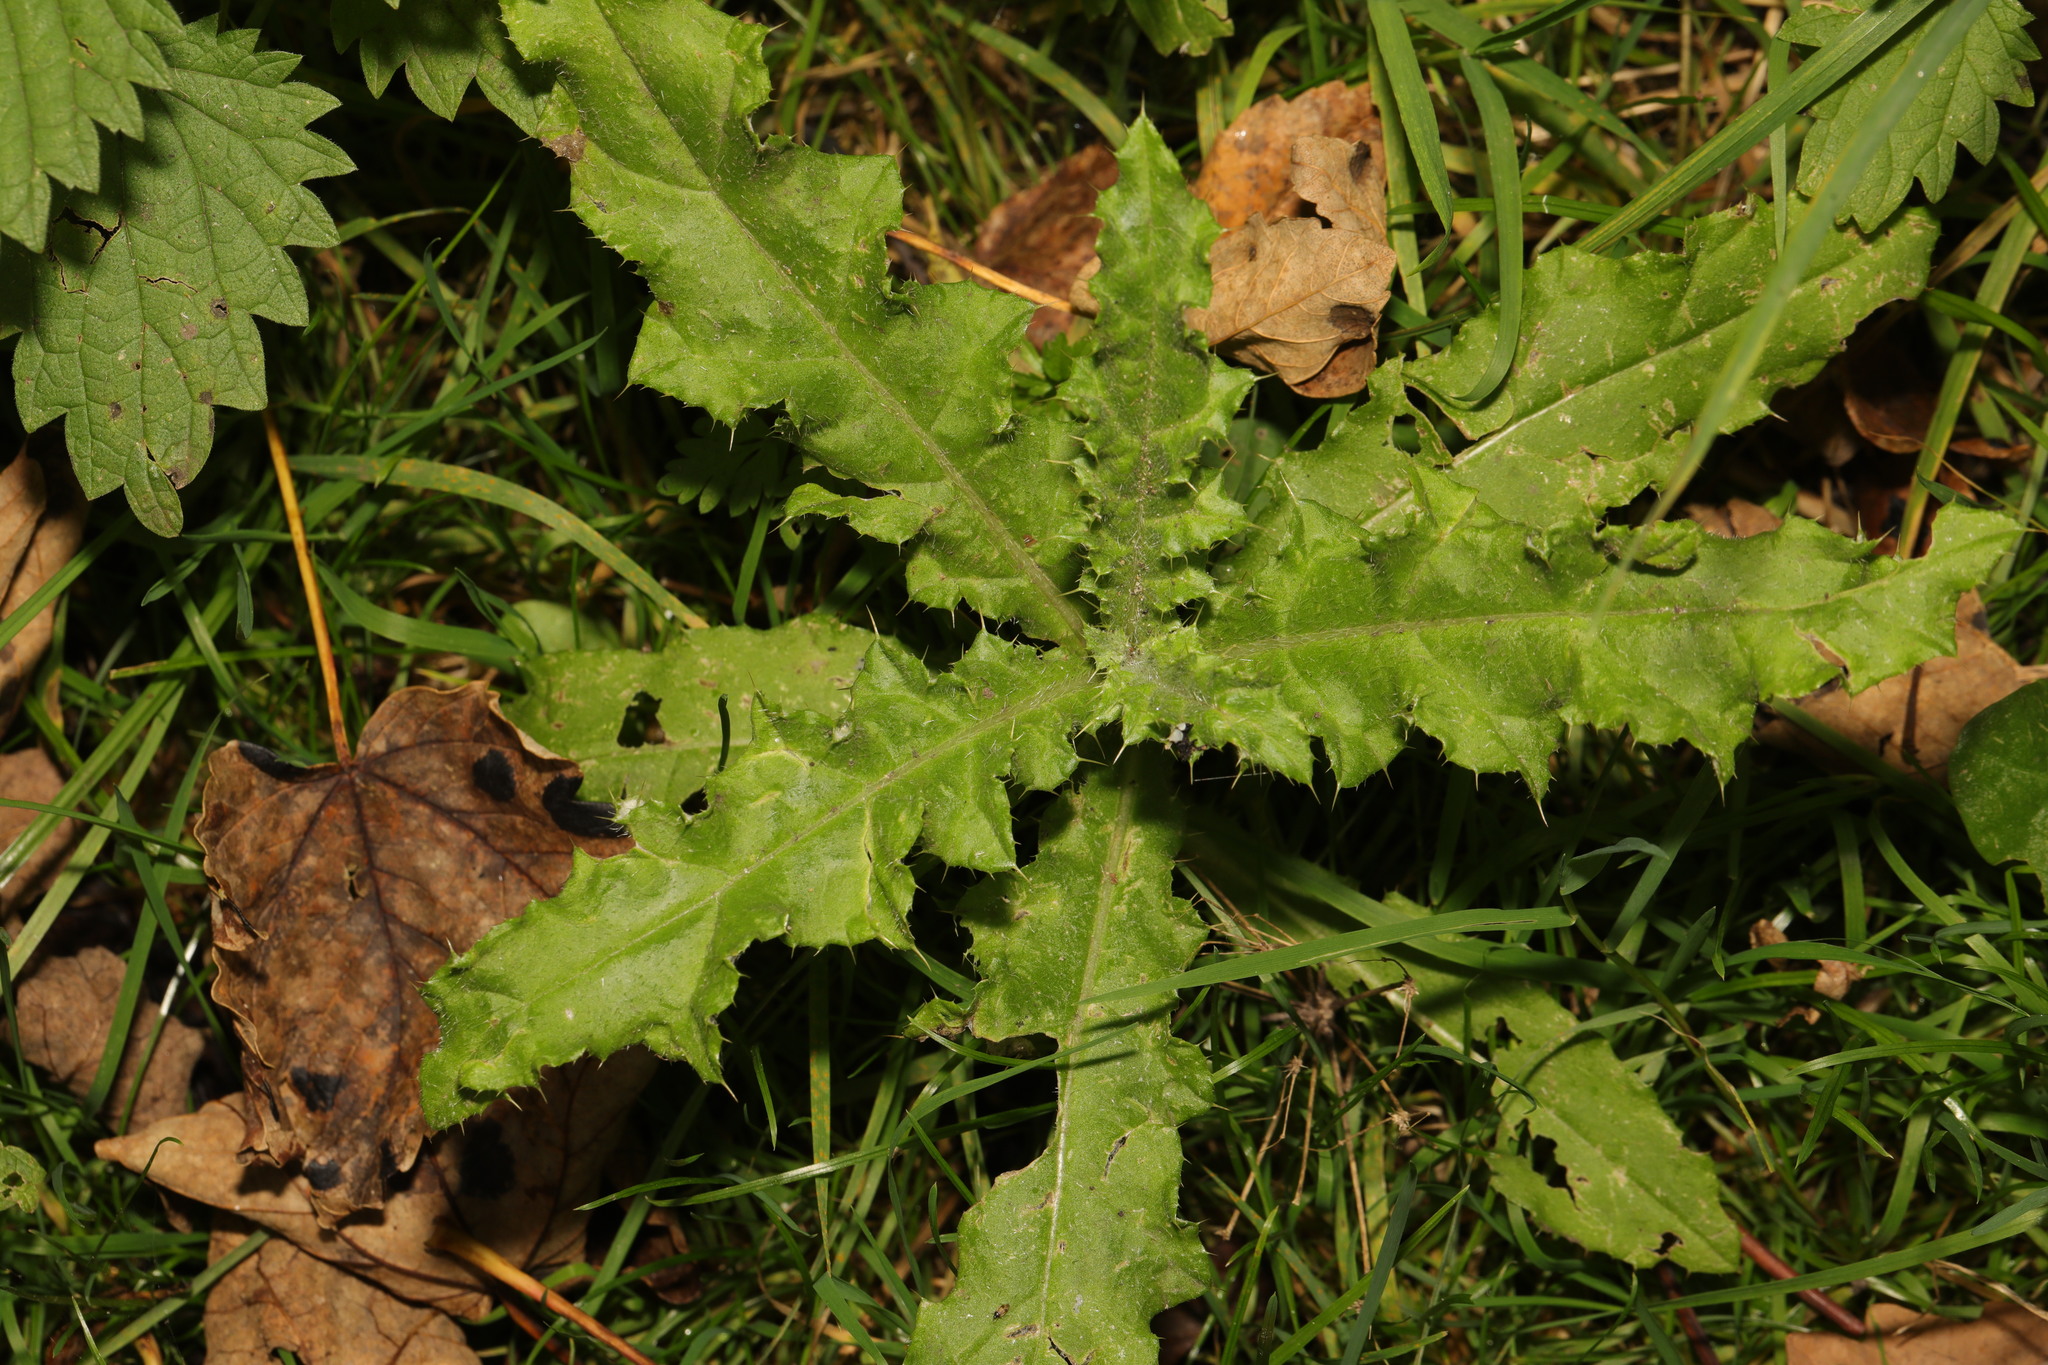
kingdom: Plantae
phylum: Tracheophyta
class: Magnoliopsida
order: Asterales
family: Asteraceae
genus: Cirsium
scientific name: Cirsium arvense
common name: Creeping thistle
